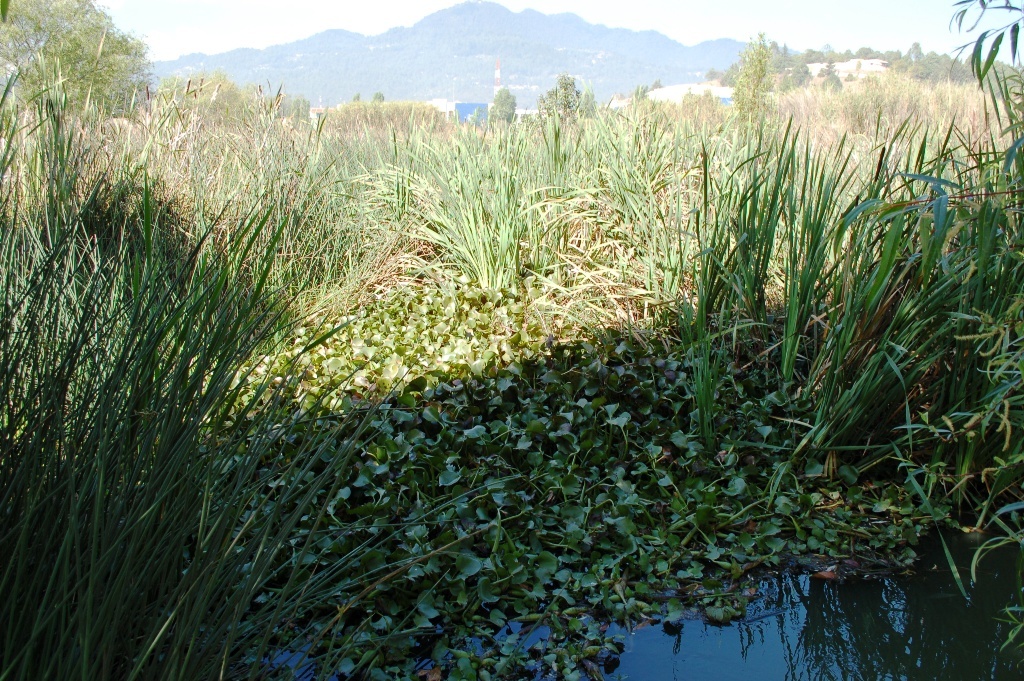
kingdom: Plantae
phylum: Tracheophyta
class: Liliopsida
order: Commelinales
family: Pontederiaceae
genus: Pontederia
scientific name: Pontederia crassipes
